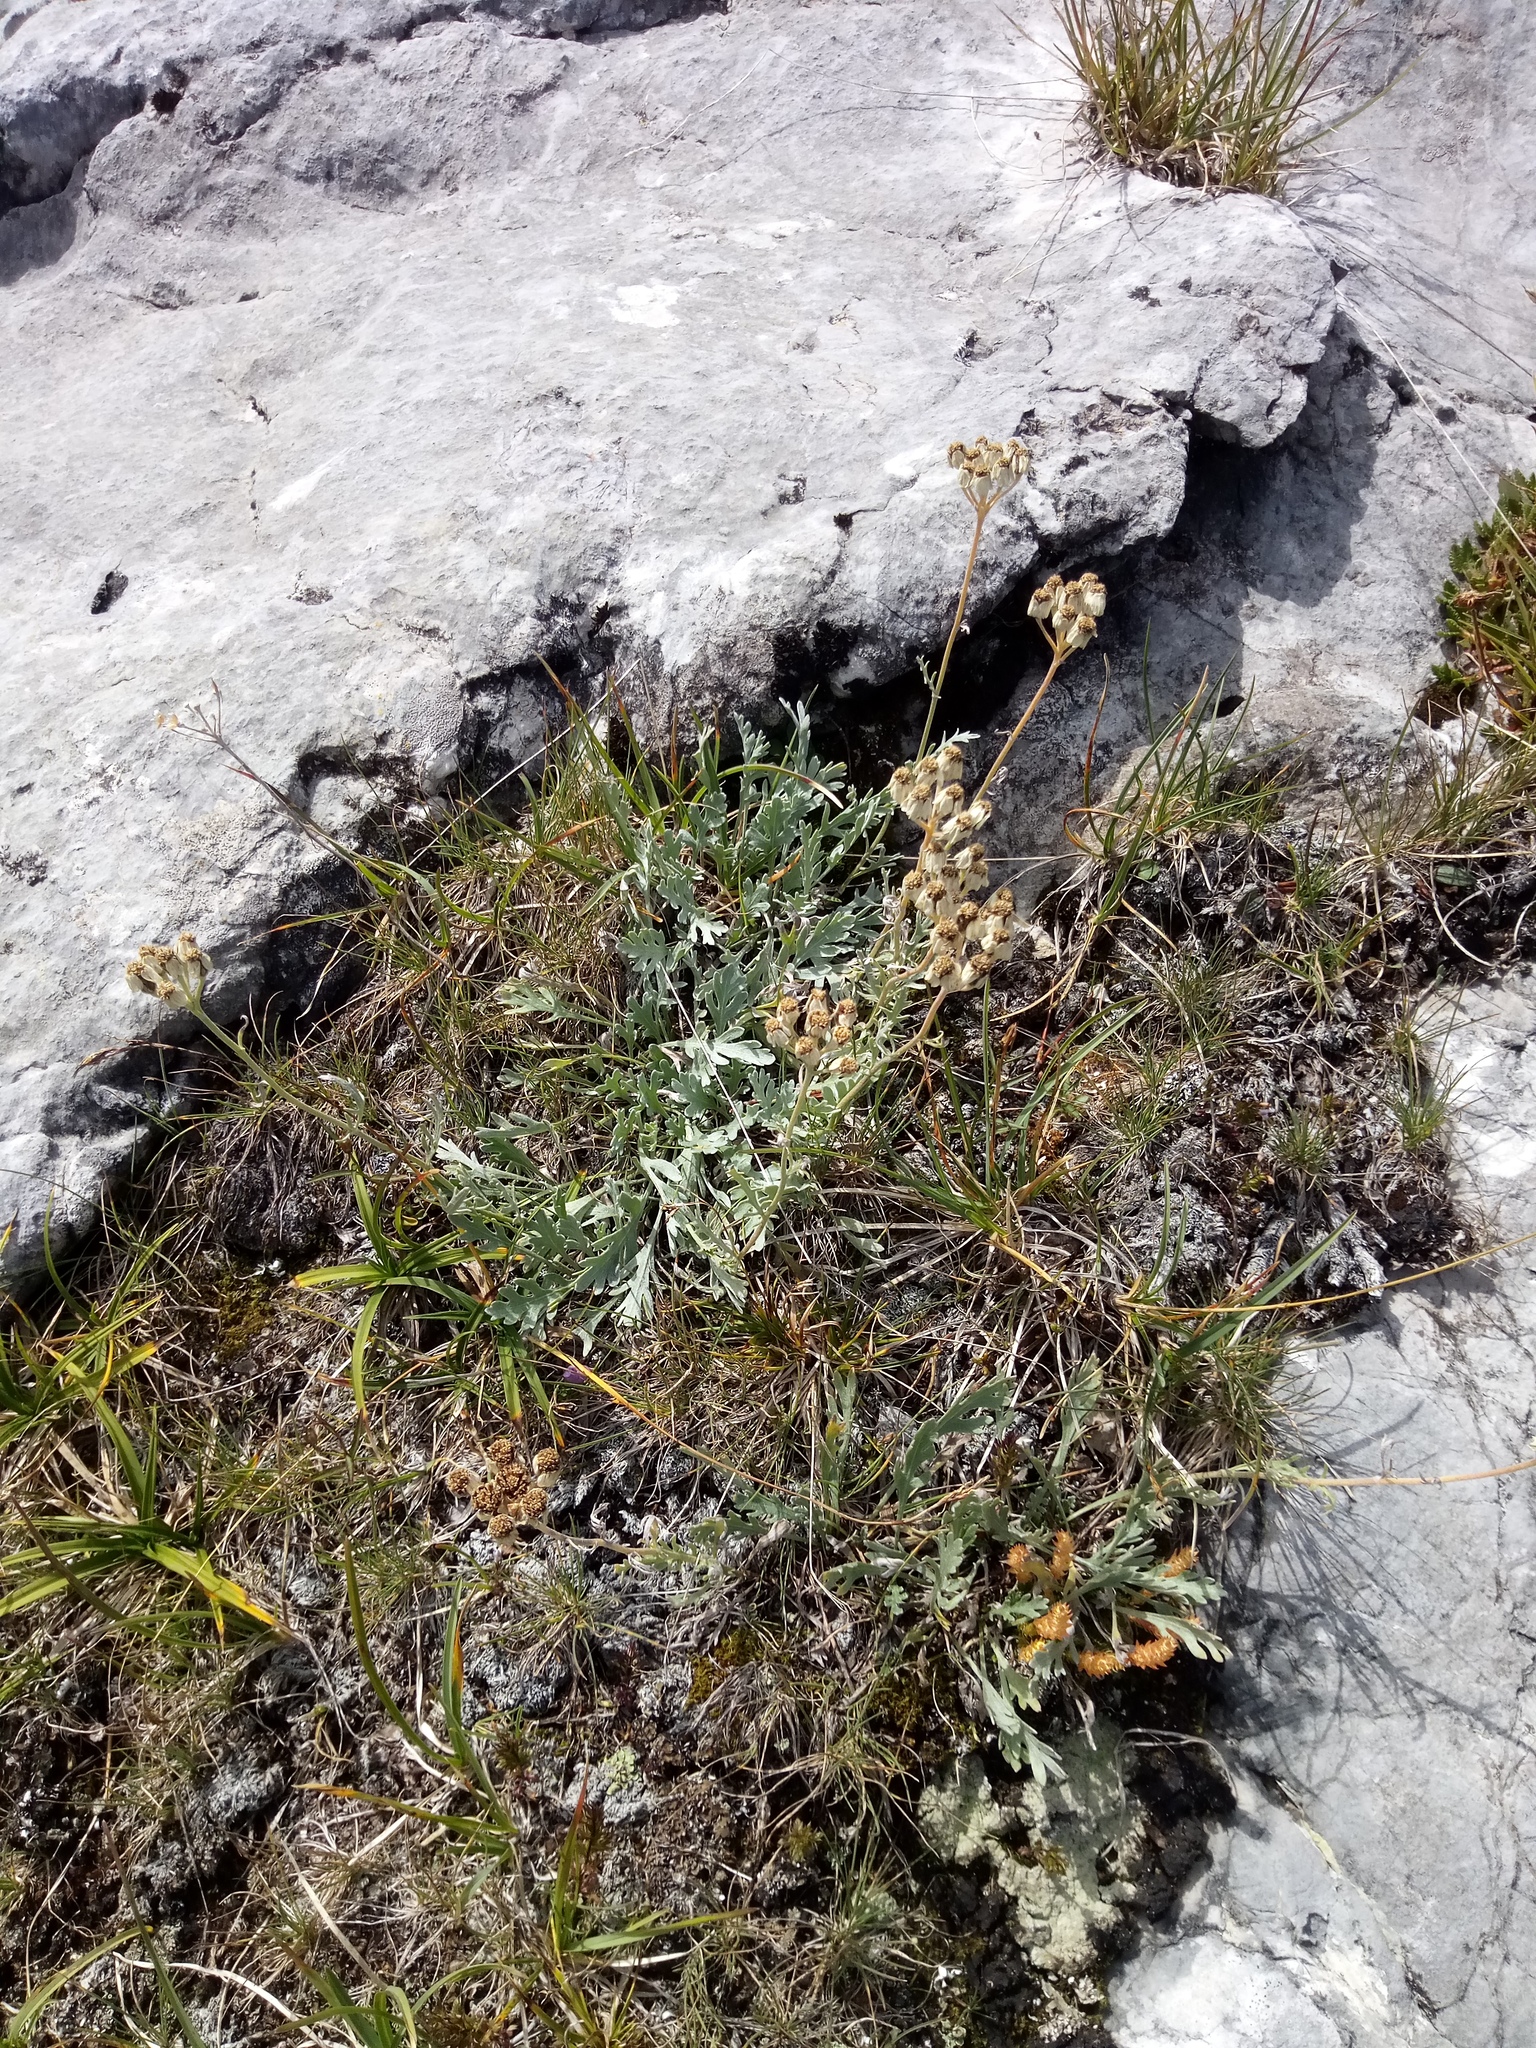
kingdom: Plantae
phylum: Tracheophyta
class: Magnoliopsida
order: Asterales
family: Asteraceae
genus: Achillea
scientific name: Achillea clavennae
